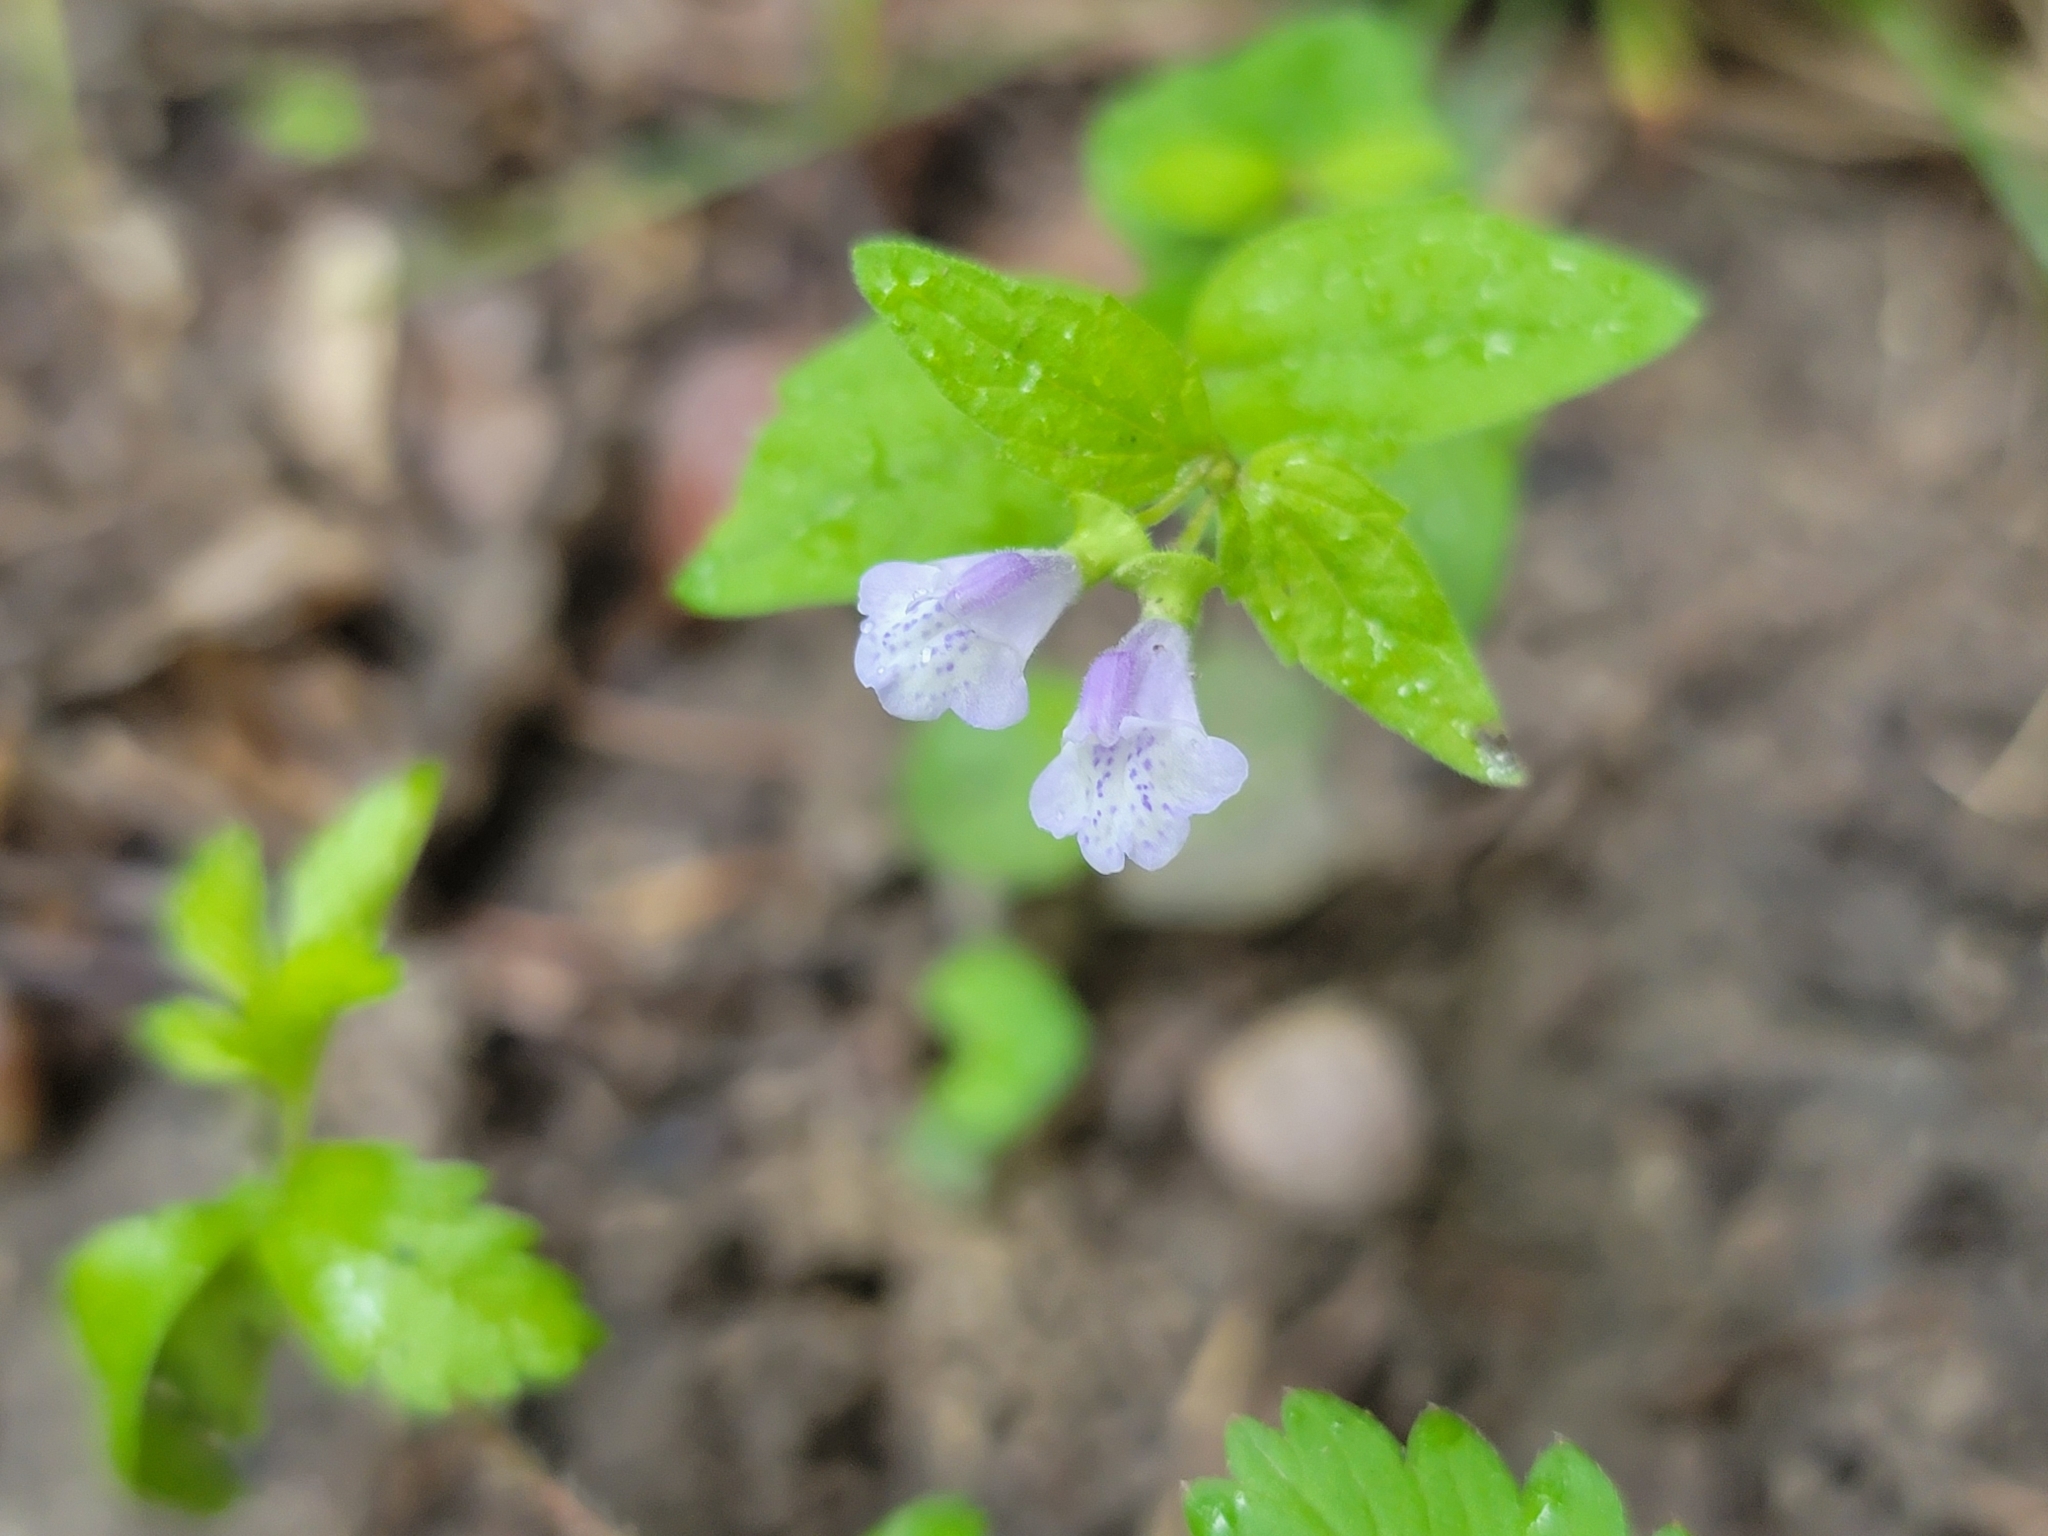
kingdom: Plantae
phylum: Tracheophyta
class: Magnoliopsida
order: Lamiales
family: Lamiaceae
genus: Scutellaria
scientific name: Scutellaria nervosa
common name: Bottomland skullcap
